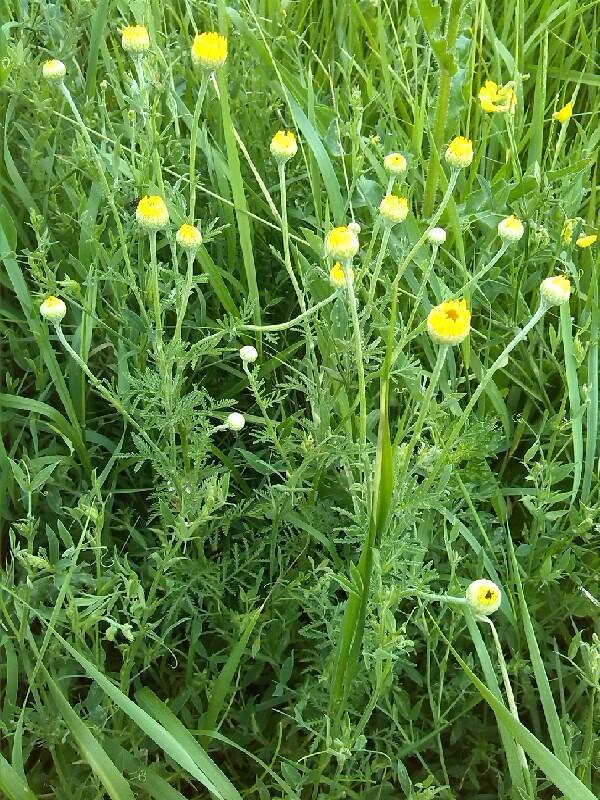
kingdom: Plantae
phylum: Tracheophyta
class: Magnoliopsida
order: Asterales
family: Asteraceae
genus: Cota
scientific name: Cota tinctoria
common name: Golden chamomile
